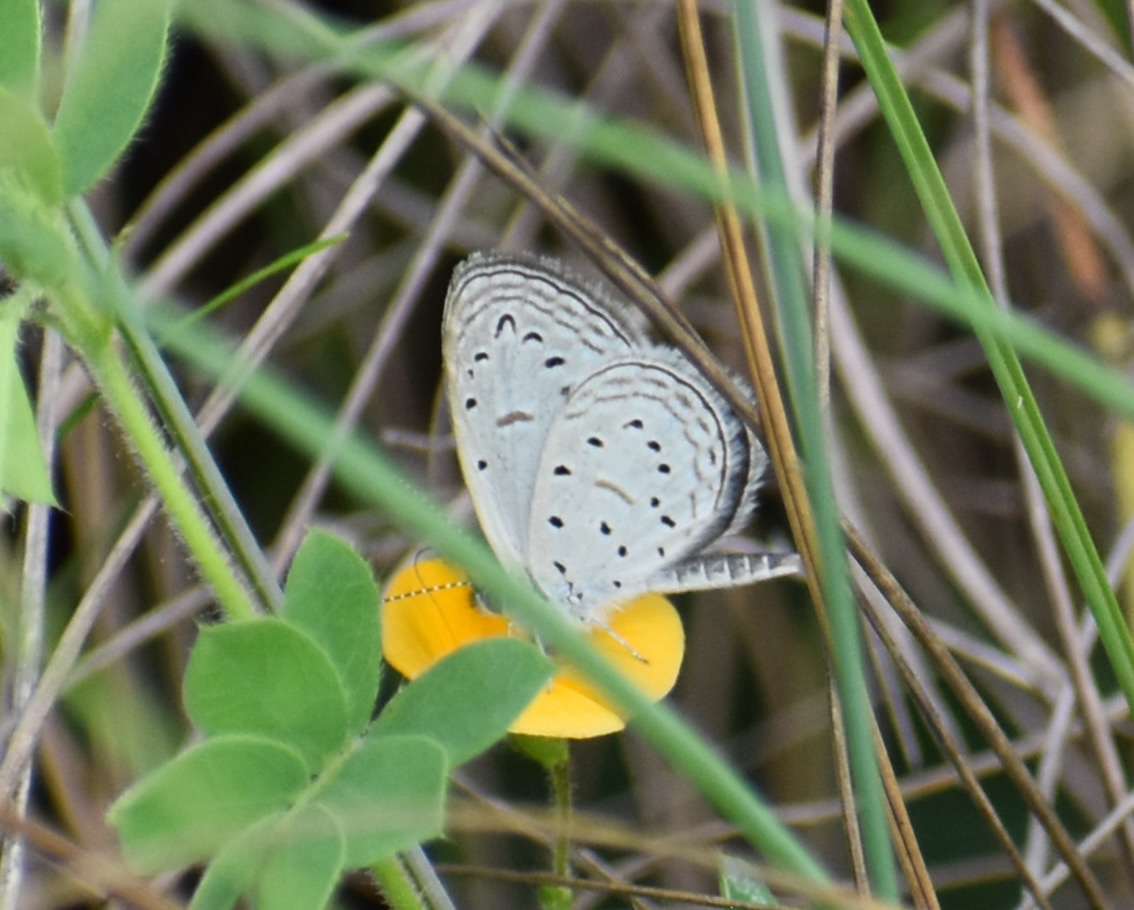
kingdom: Animalia
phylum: Arthropoda
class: Insecta
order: Lepidoptera
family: Lycaenidae
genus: Zizula
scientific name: Zizula hylax
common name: Gaika blue
